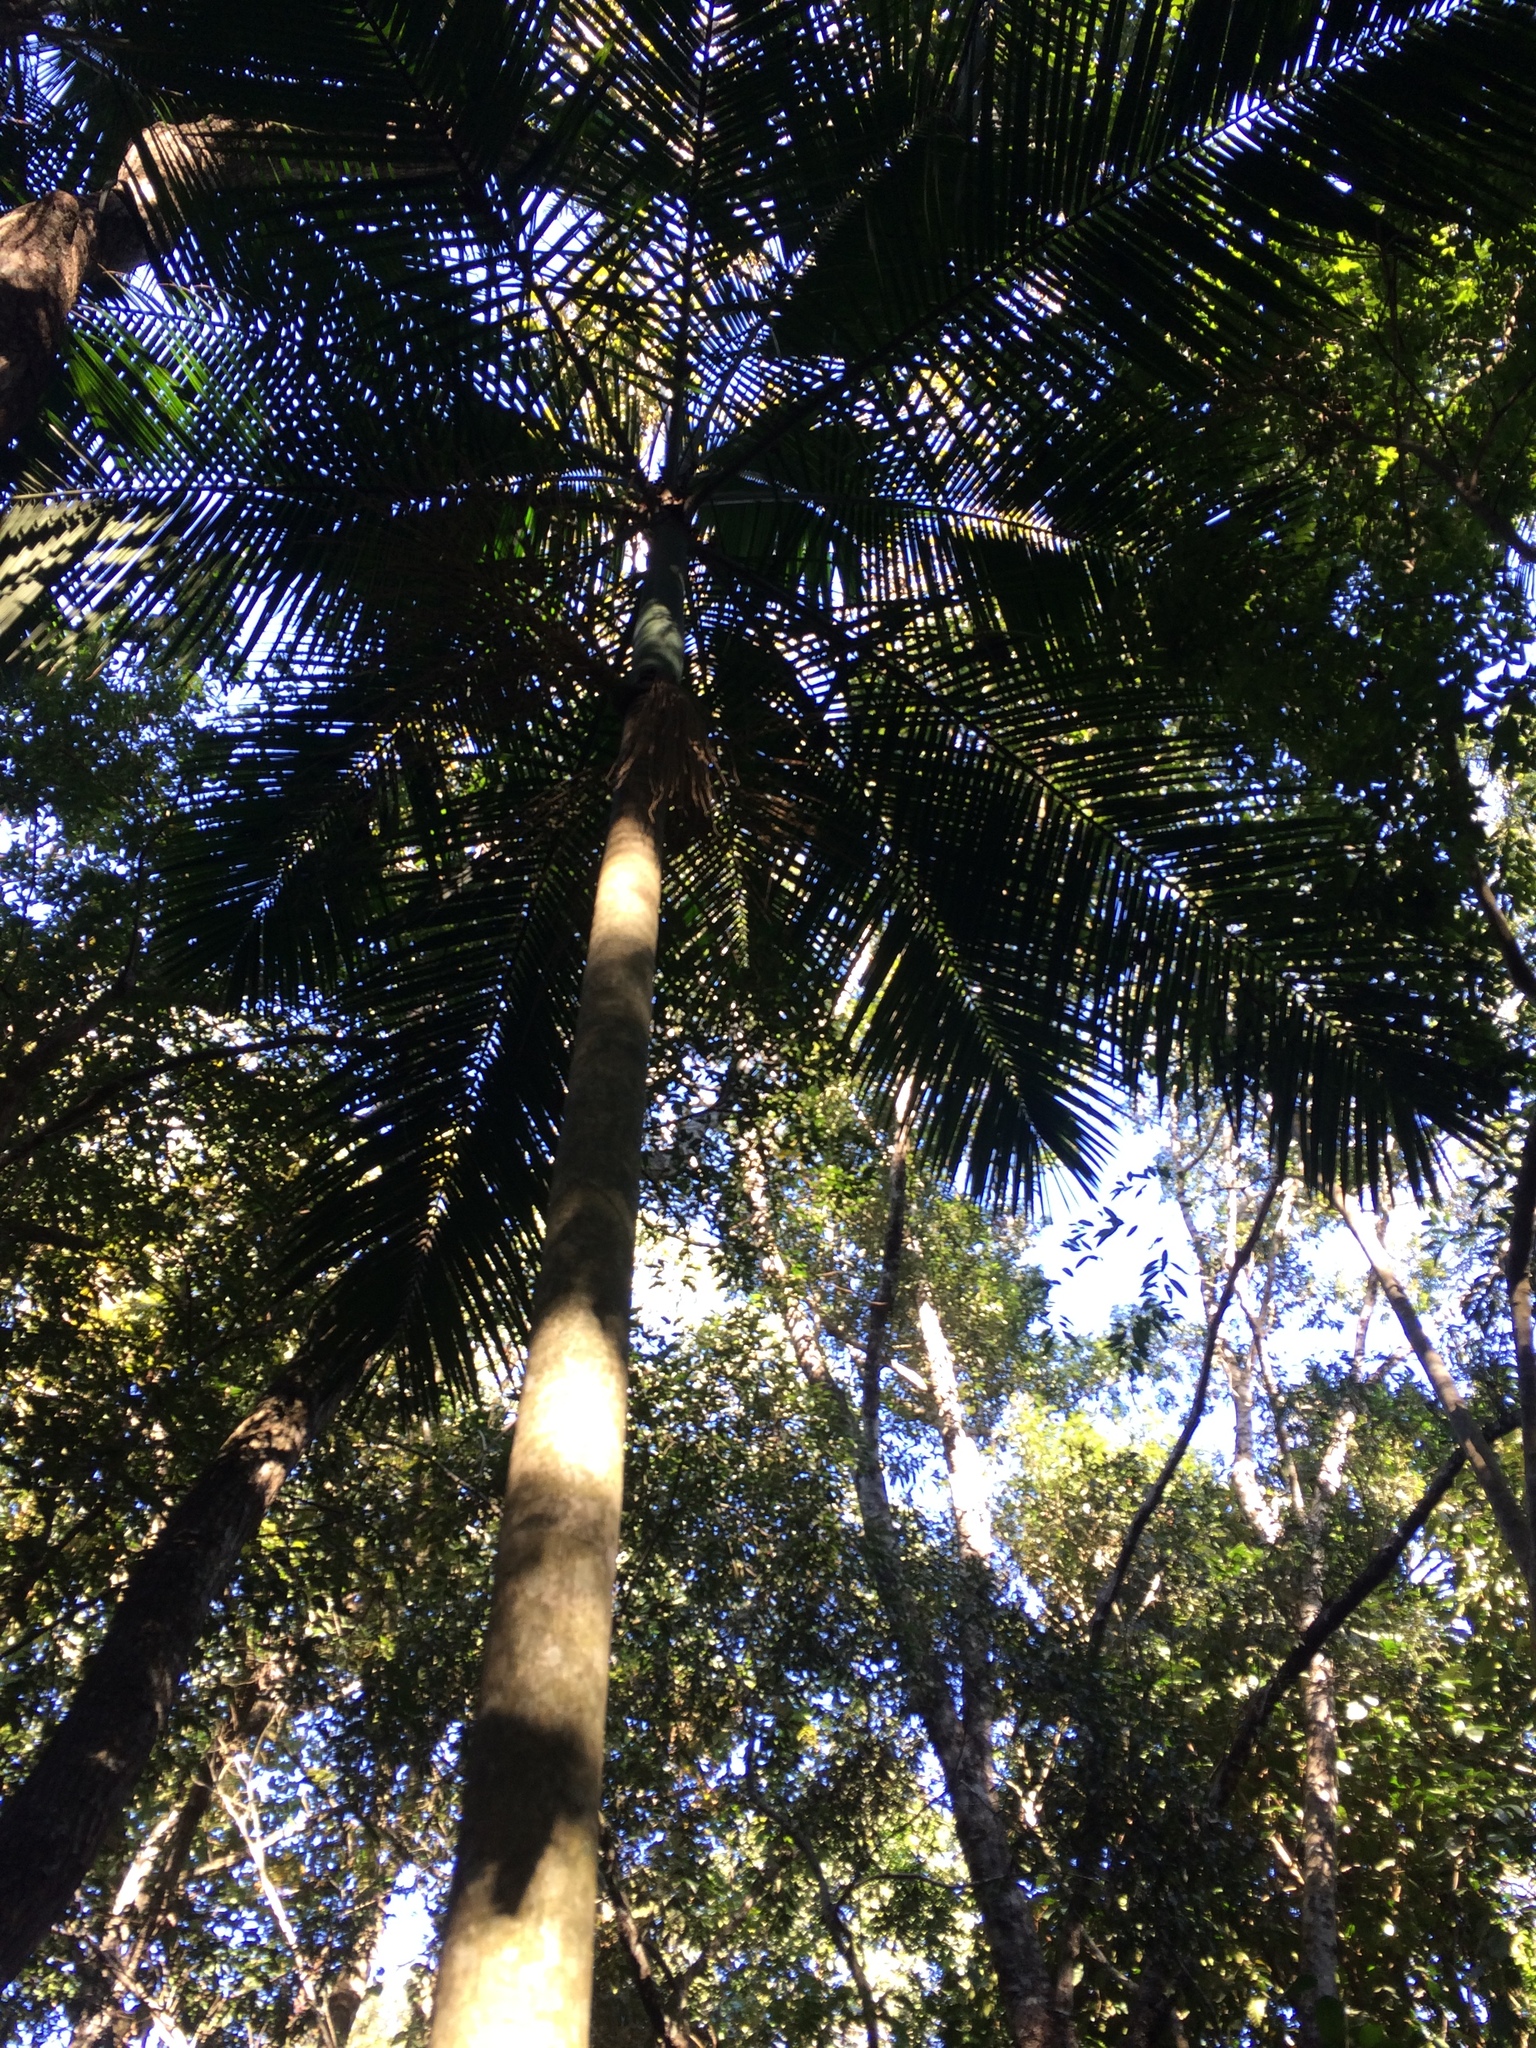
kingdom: Plantae
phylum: Tracheophyta
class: Liliopsida
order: Arecales
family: Arecaceae
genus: Euterpe
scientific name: Euterpe edulis
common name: Assai palm
